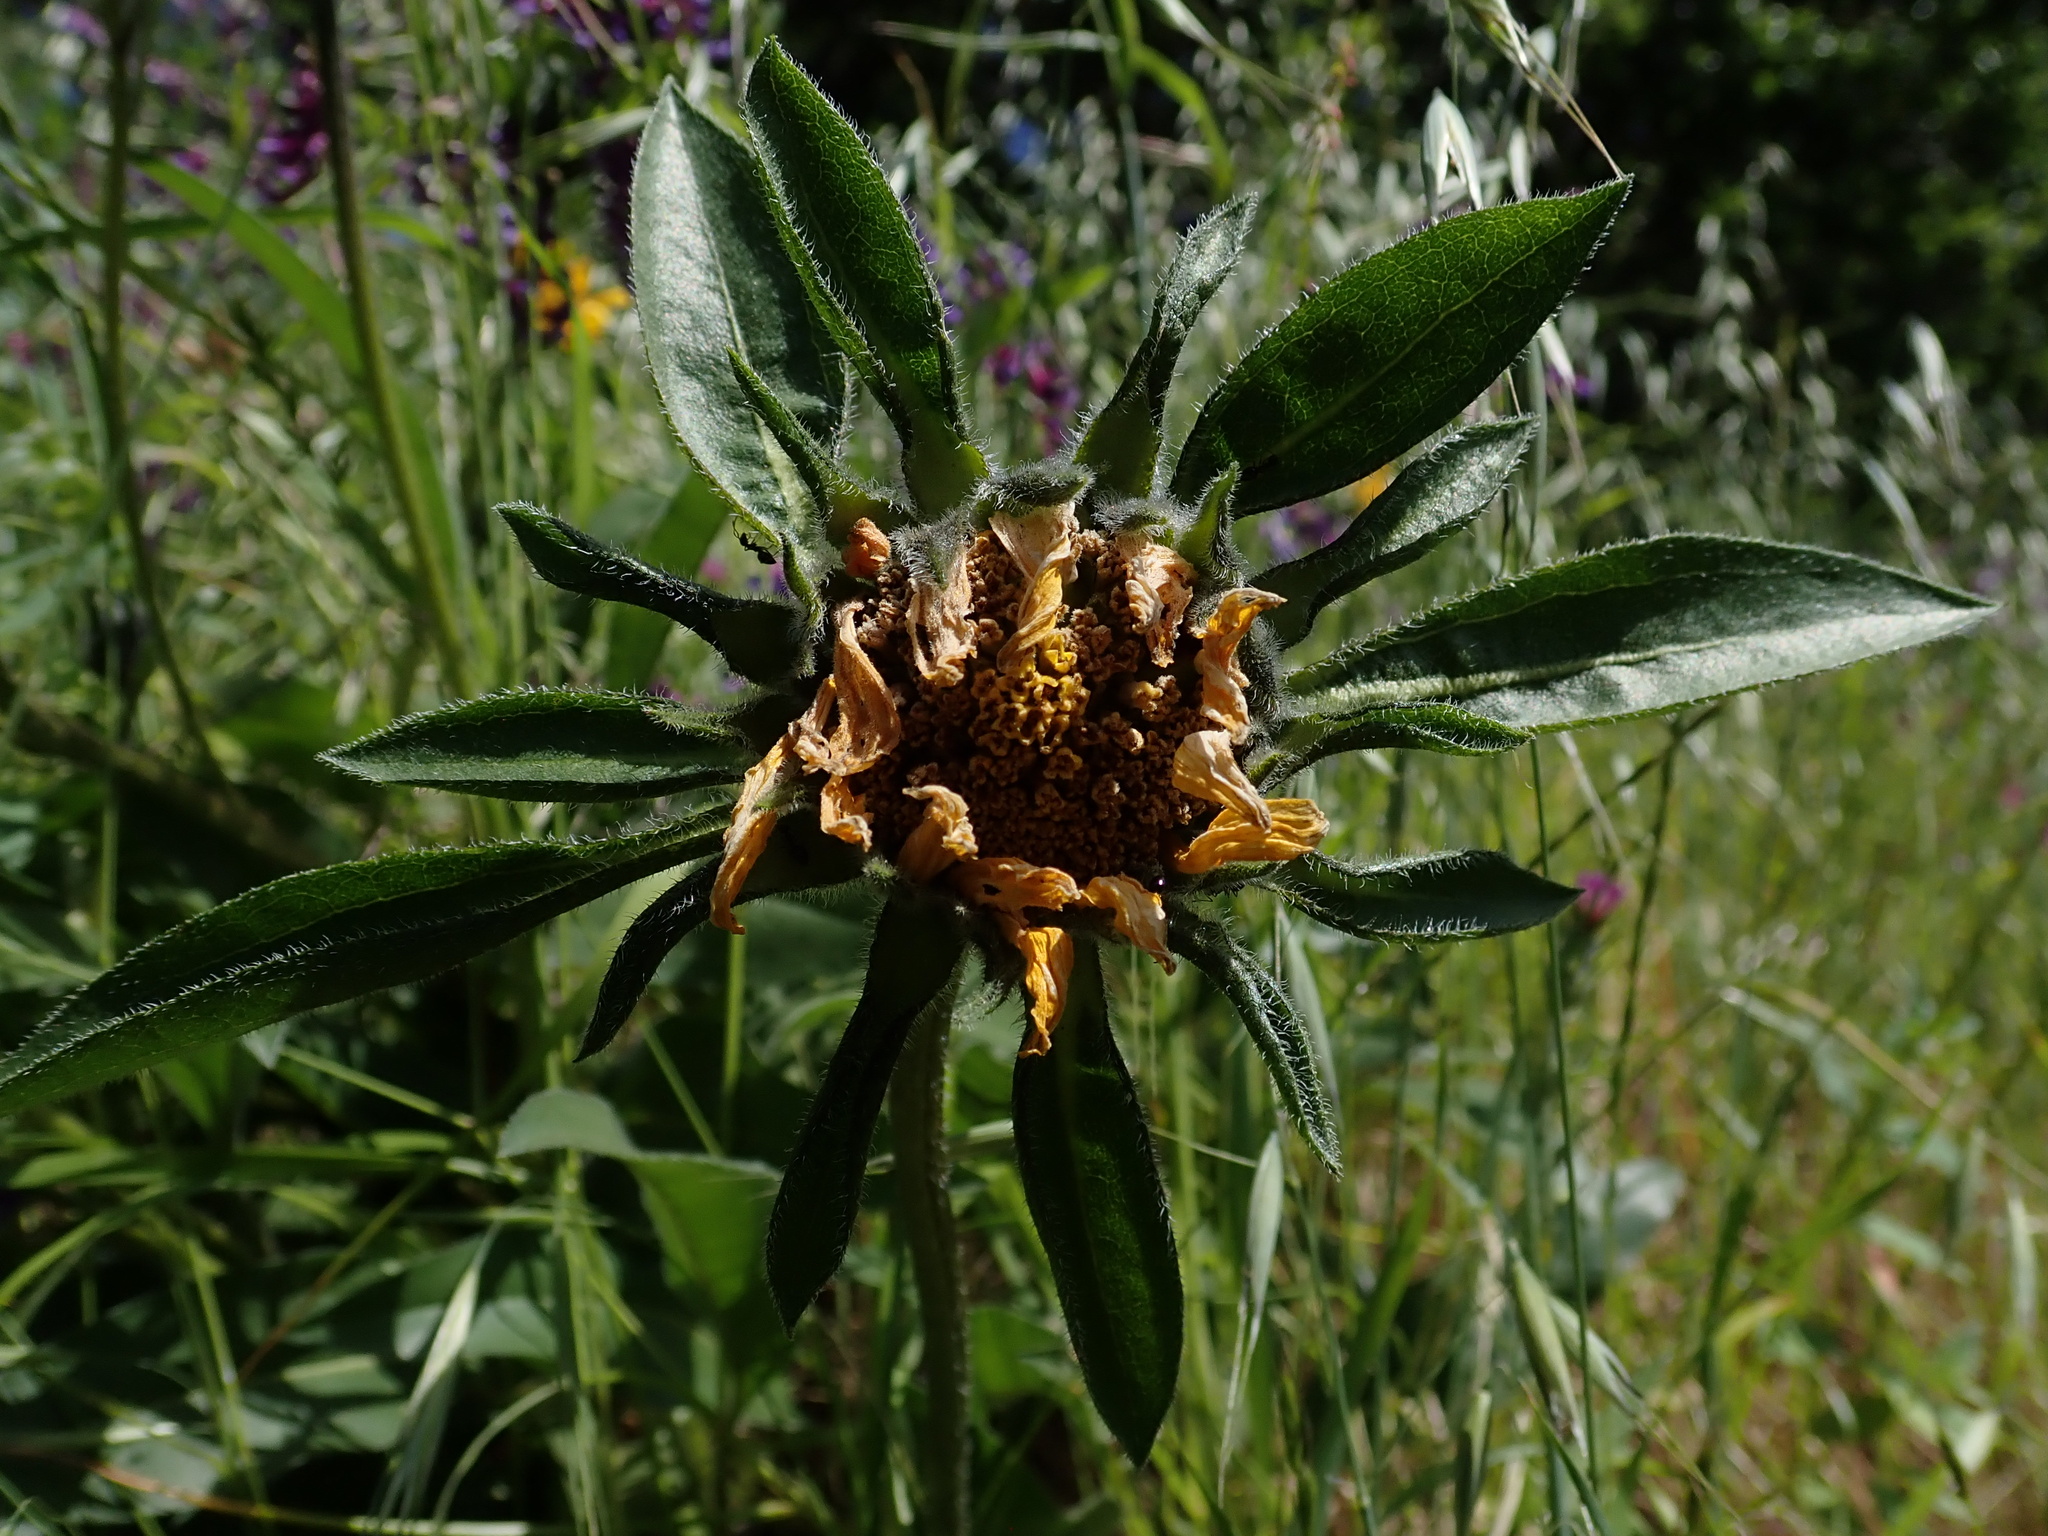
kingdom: Plantae
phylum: Tracheophyta
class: Magnoliopsida
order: Asterales
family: Asteraceae
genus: Helianthella
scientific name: Helianthella castanea
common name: Diablo helianthella
